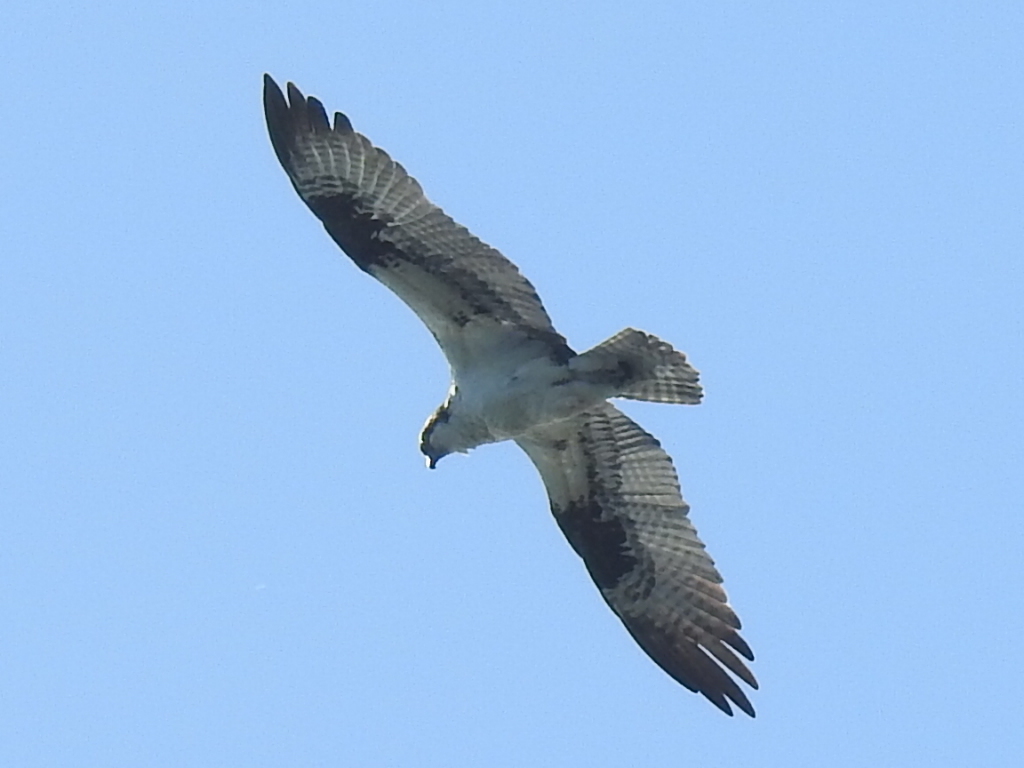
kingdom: Animalia
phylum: Chordata
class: Aves
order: Accipitriformes
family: Pandionidae
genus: Pandion
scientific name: Pandion haliaetus
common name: Osprey
